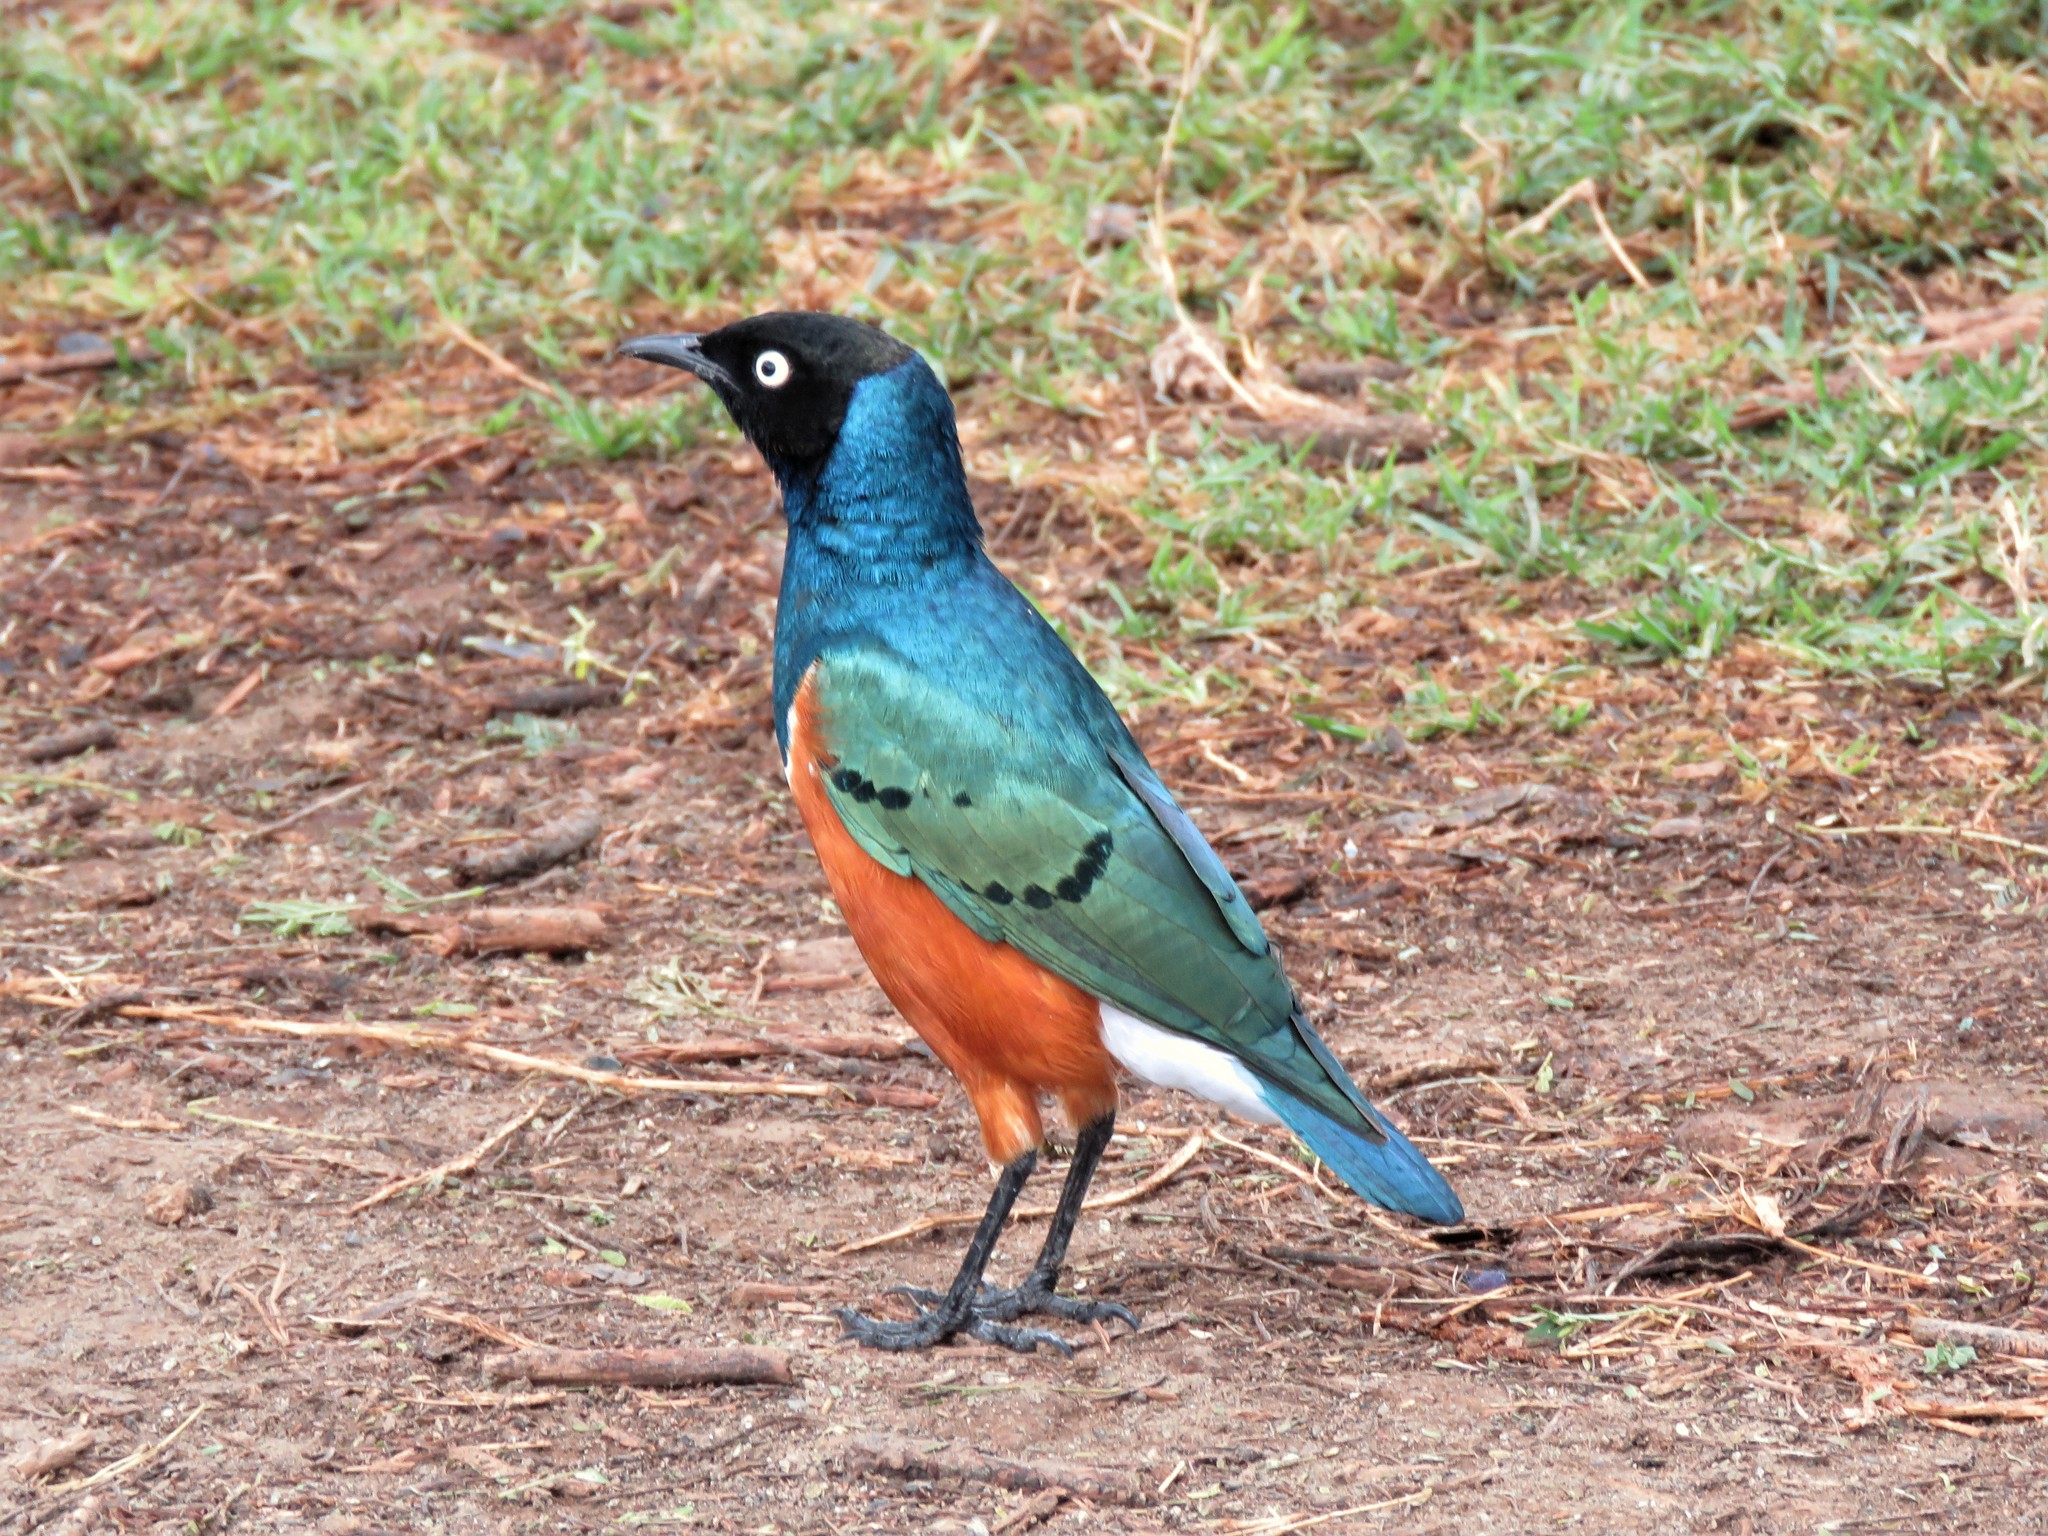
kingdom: Animalia
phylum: Chordata
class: Aves
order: Passeriformes
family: Sturnidae
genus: Lamprotornis
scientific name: Lamprotornis superbus
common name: Superb starling
